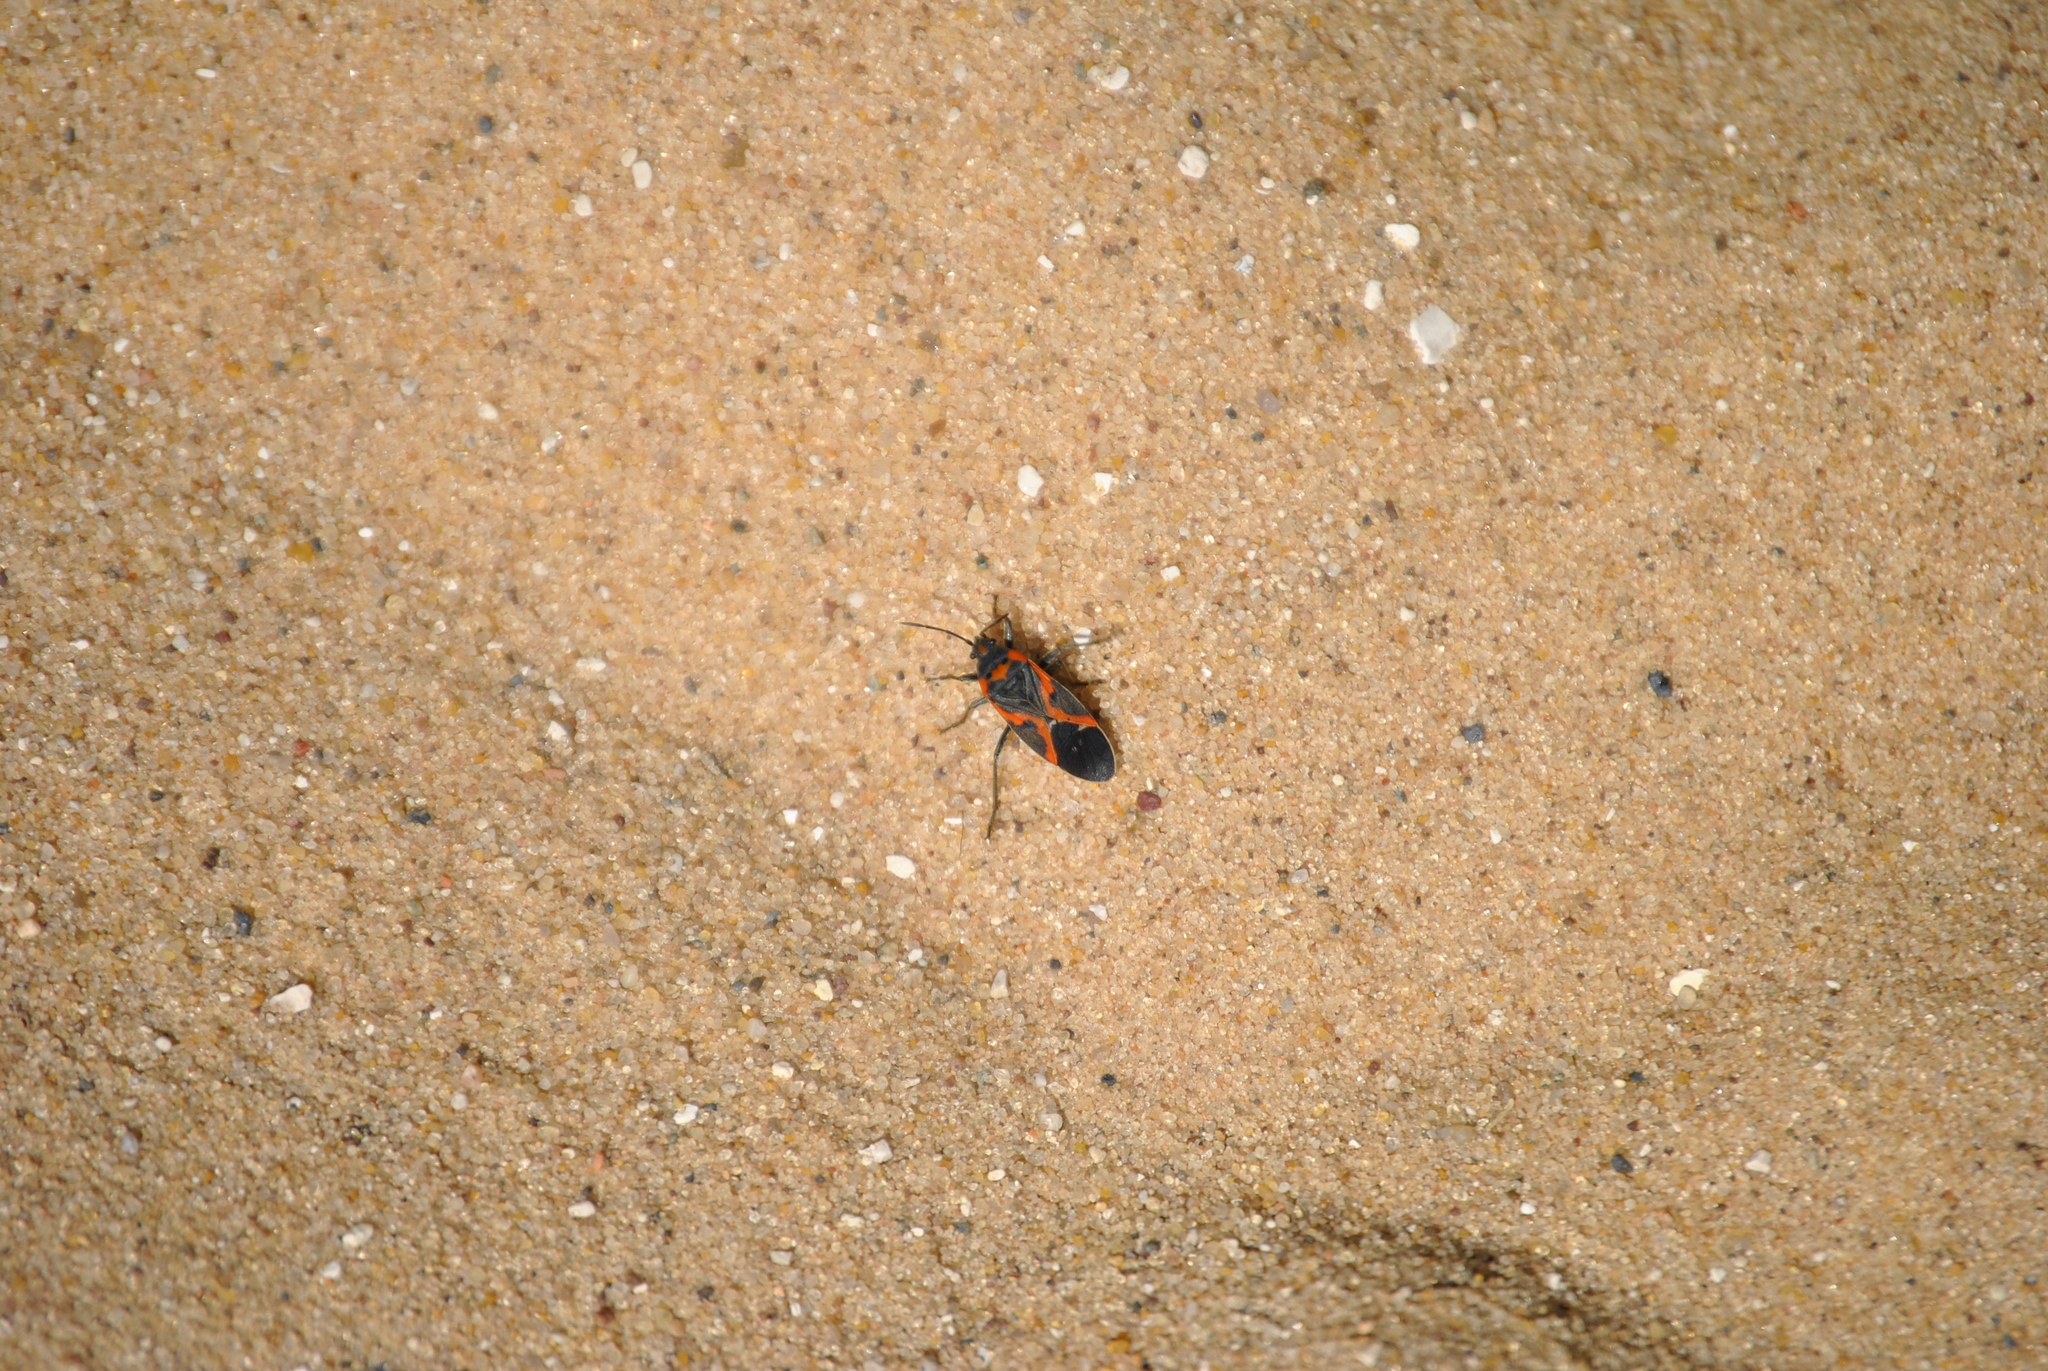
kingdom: Animalia
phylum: Arthropoda
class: Insecta
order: Hemiptera
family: Lygaeidae
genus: Lygaeus
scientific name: Lygaeus kalmii
